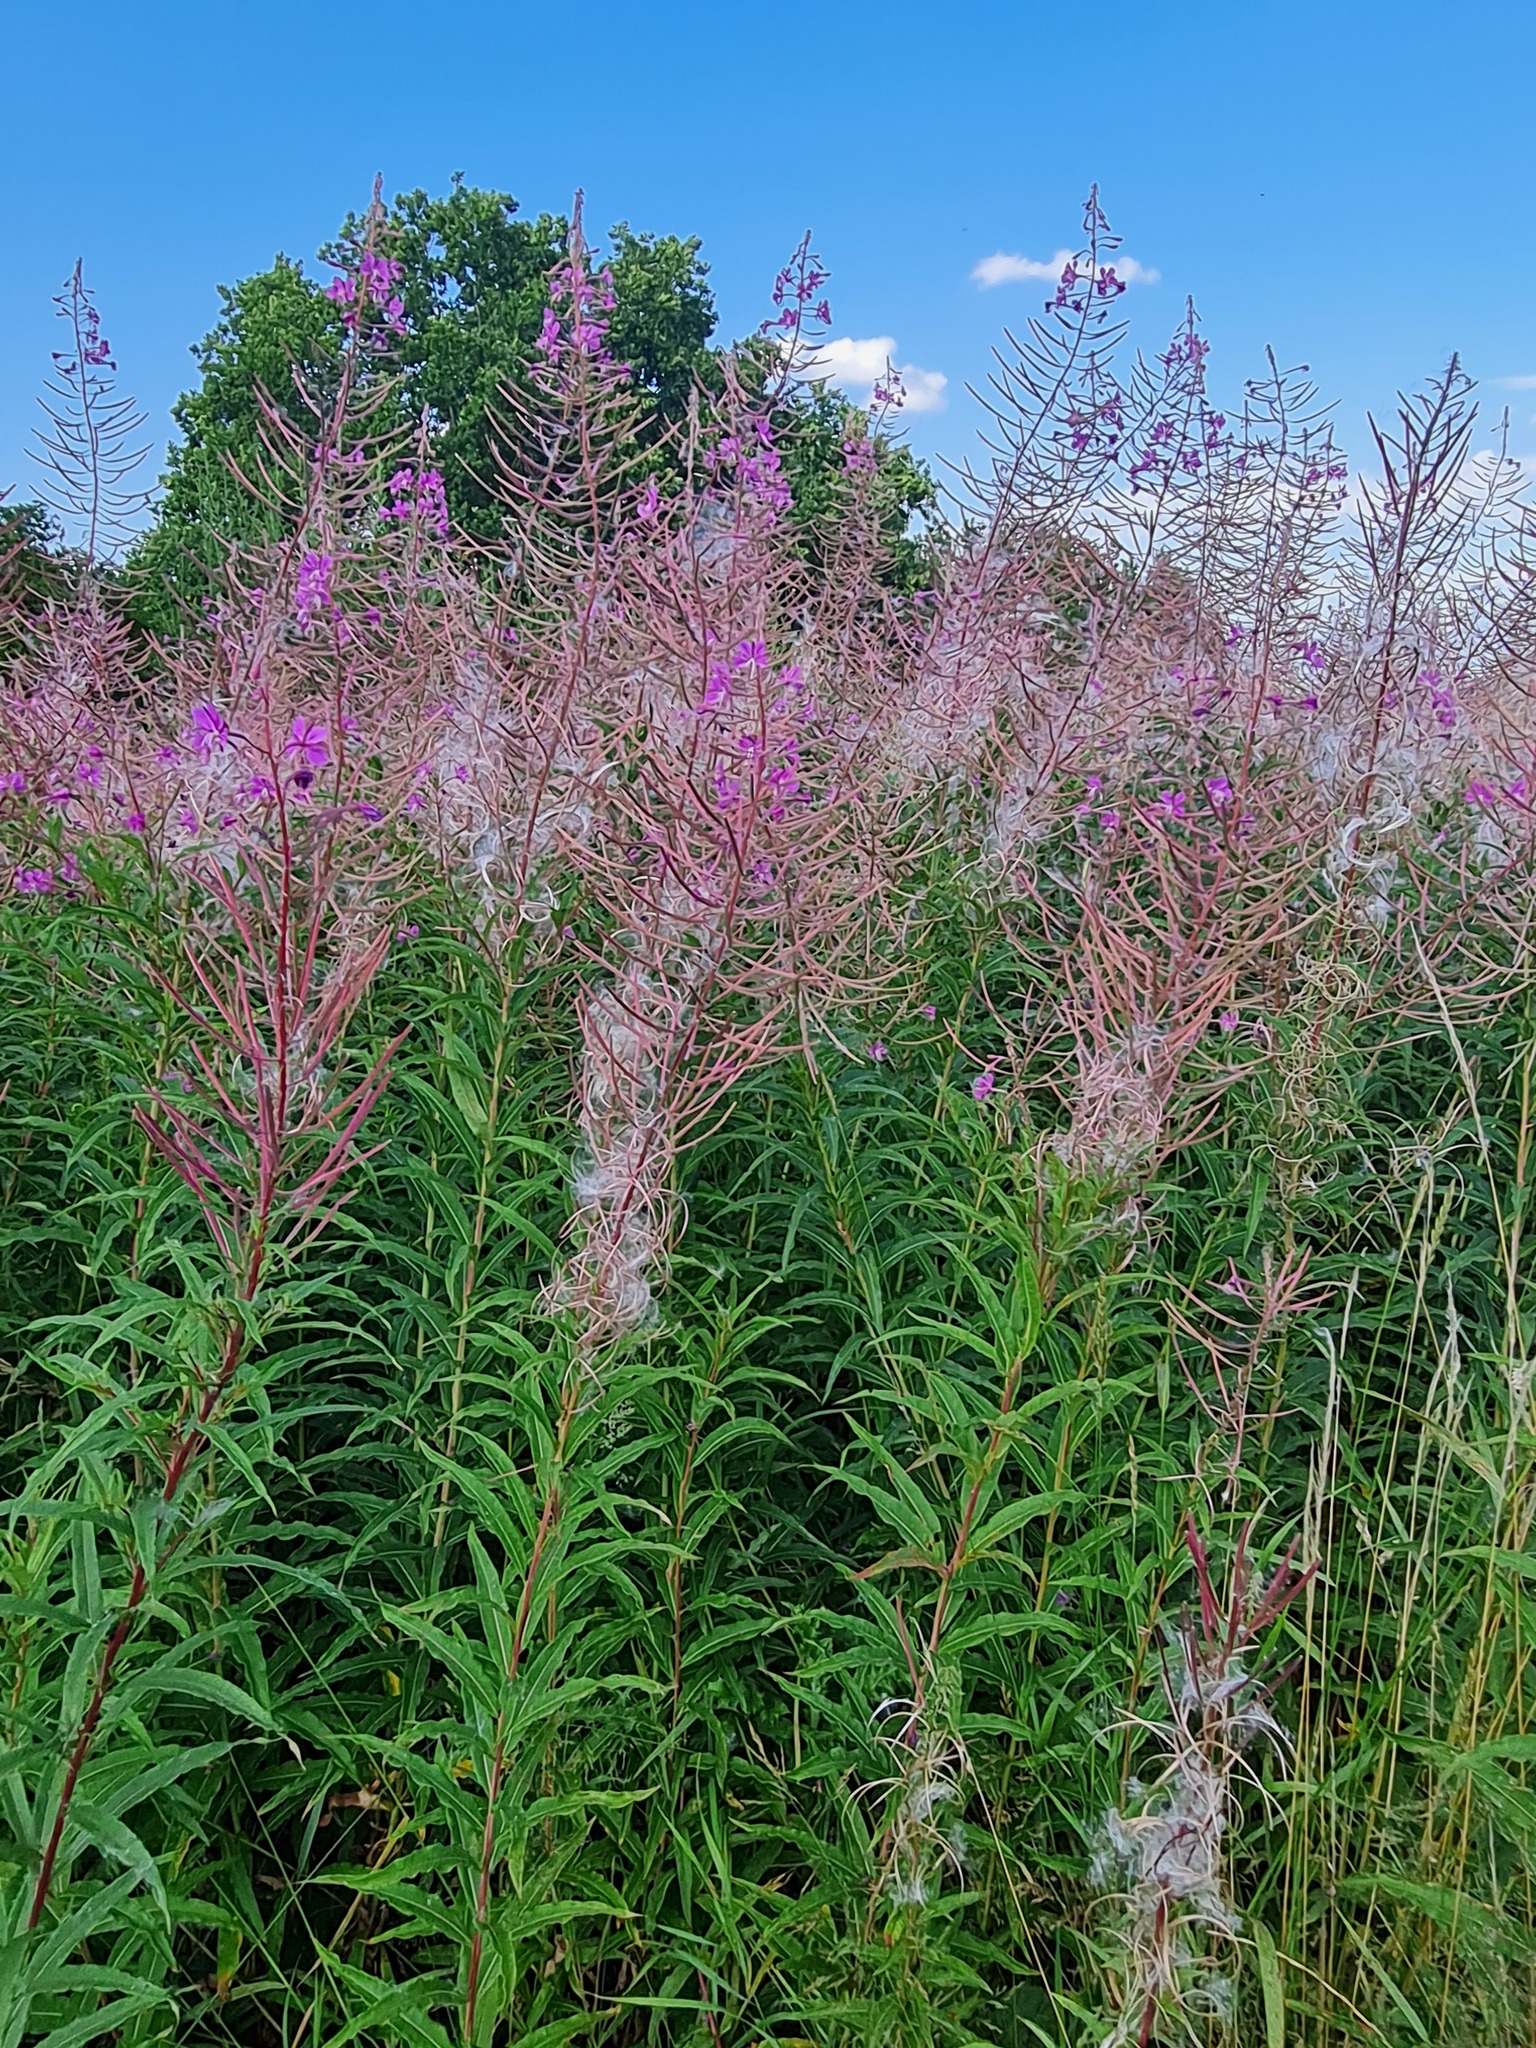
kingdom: Plantae
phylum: Tracheophyta
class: Magnoliopsida
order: Myrtales
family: Onagraceae
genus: Chamaenerion
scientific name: Chamaenerion angustifolium
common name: Fireweed
